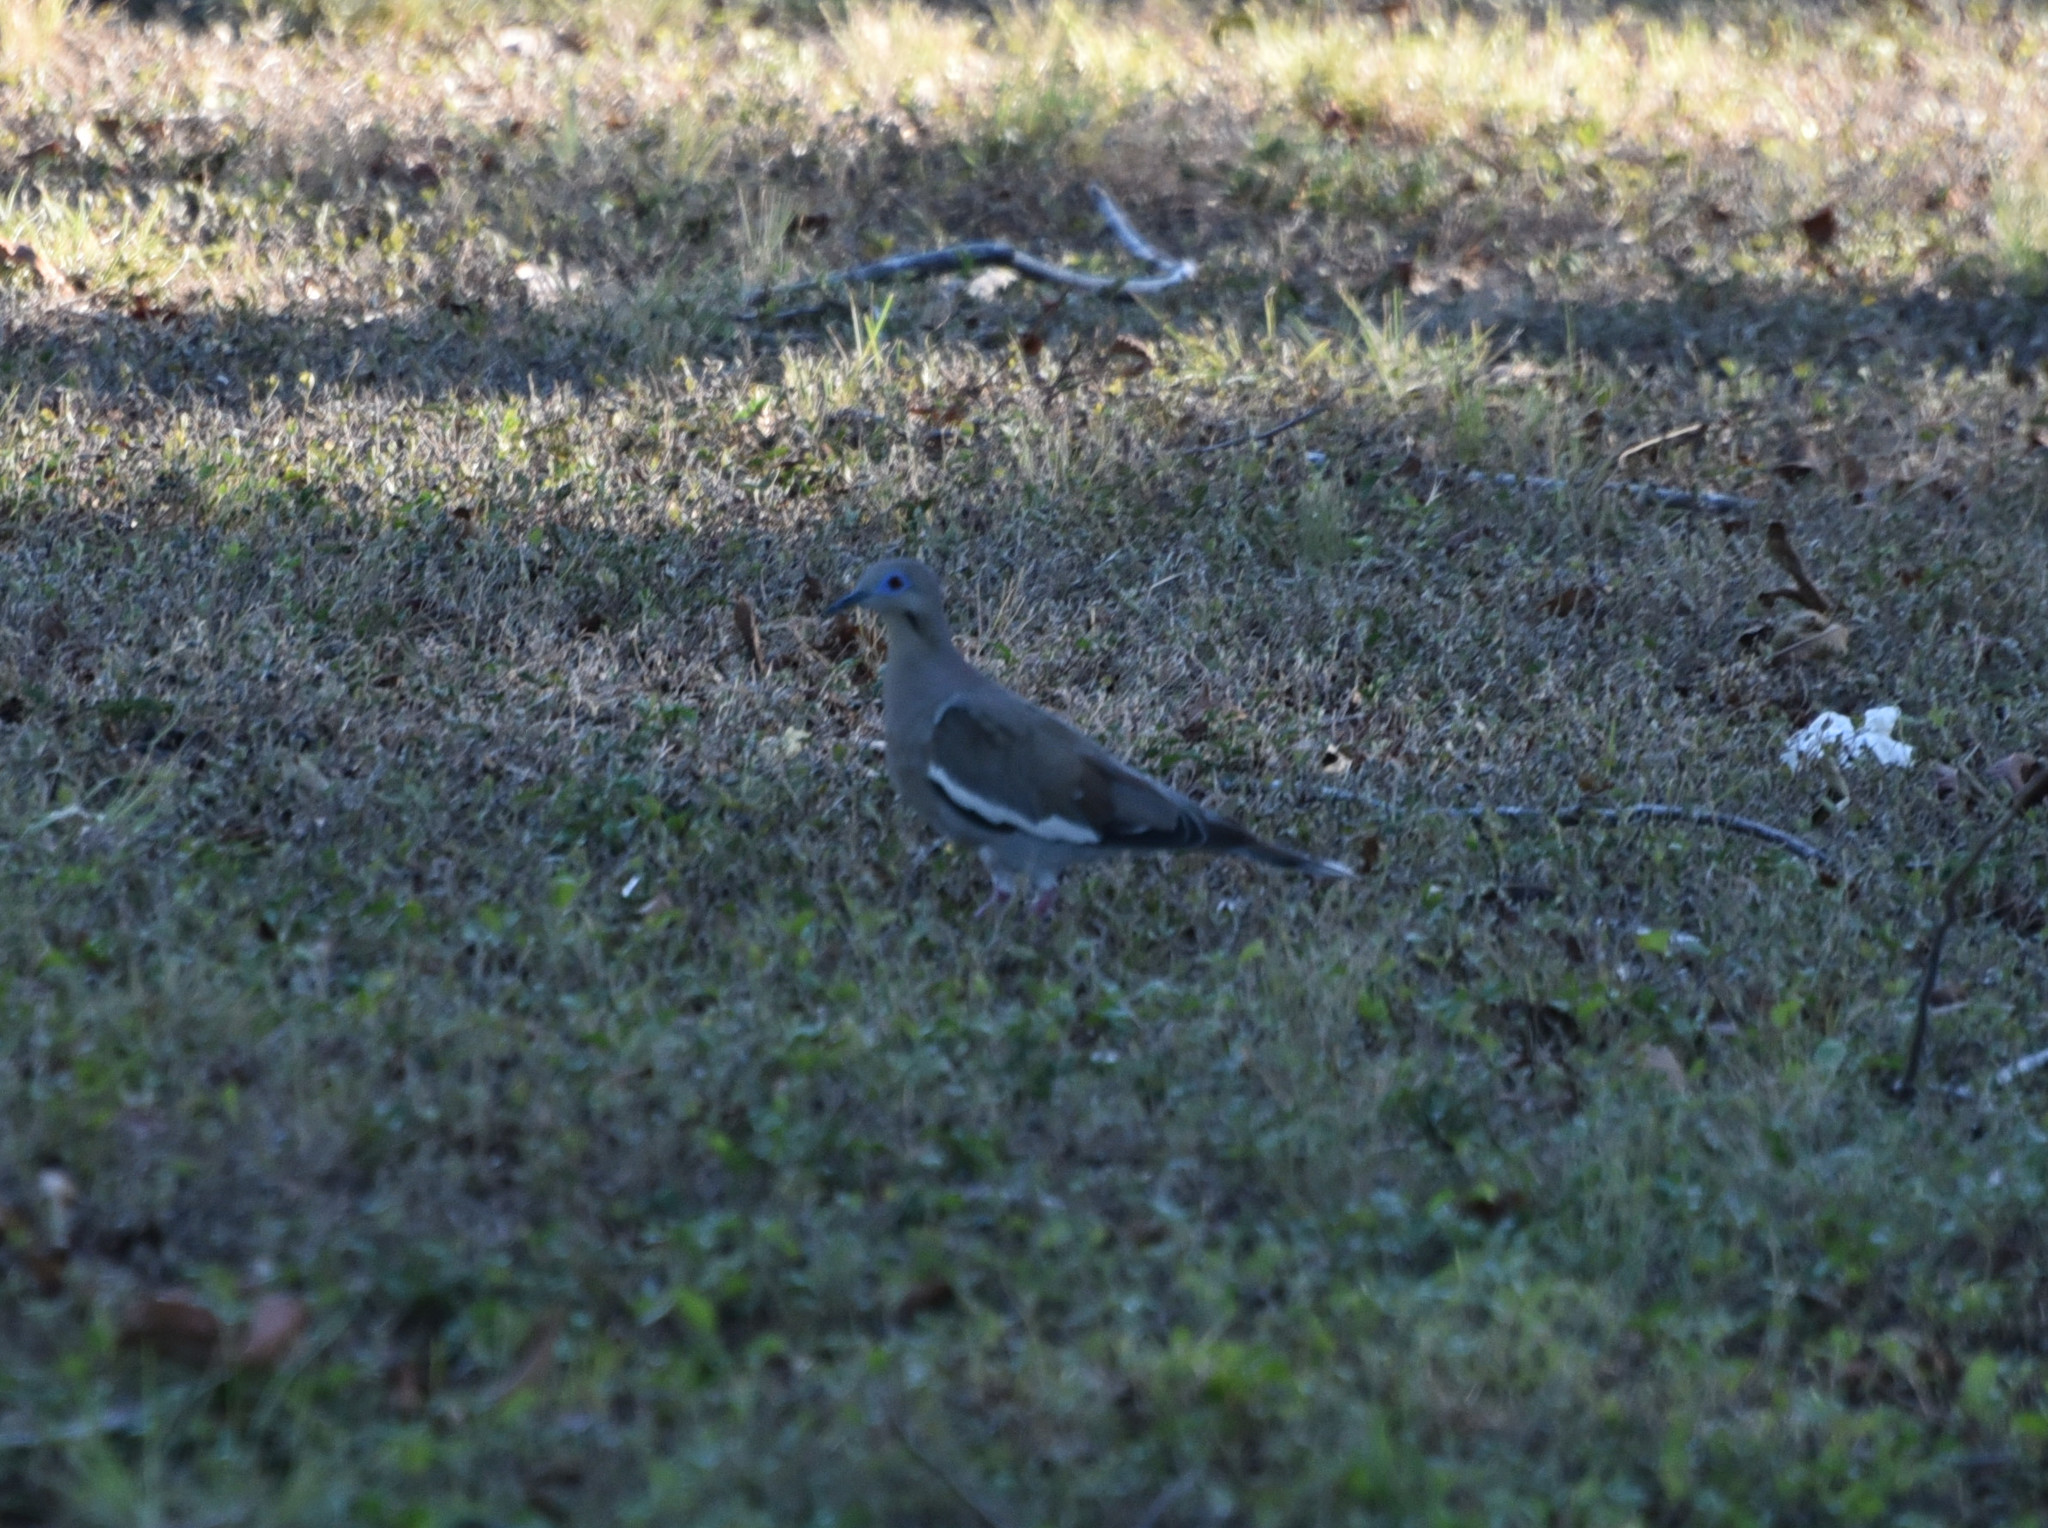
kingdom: Animalia
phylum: Chordata
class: Aves
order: Columbiformes
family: Columbidae
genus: Zenaida
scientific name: Zenaida asiatica
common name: White-winged dove
